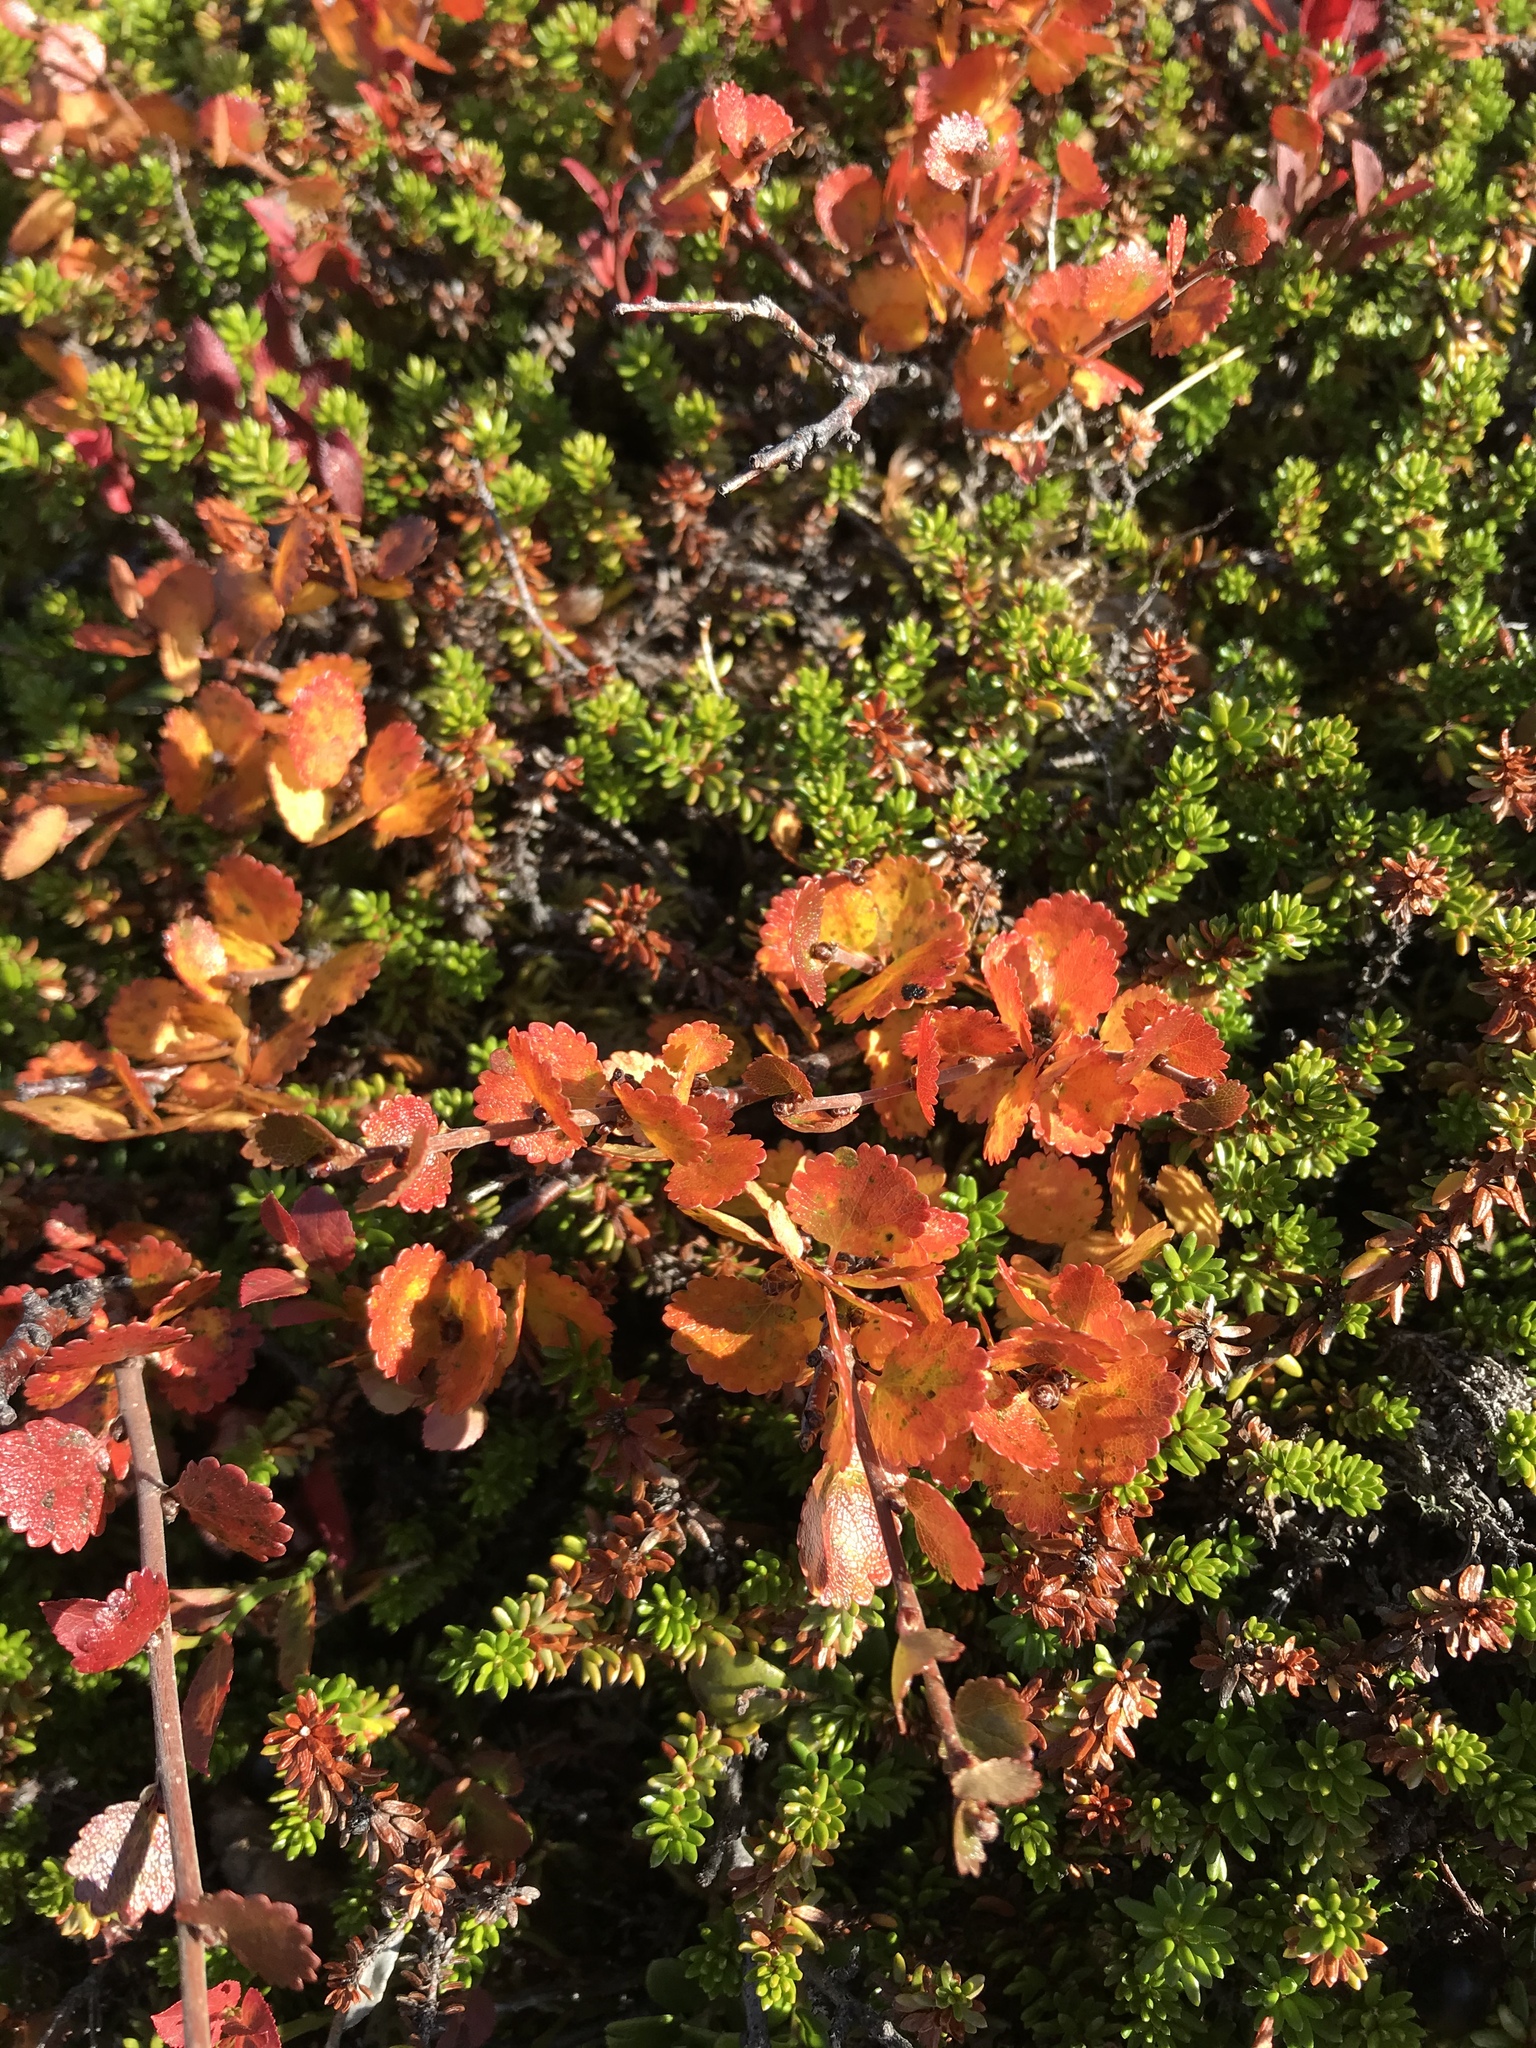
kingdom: Plantae
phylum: Tracheophyta
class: Magnoliopsida
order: Fagales
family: Betulaceae
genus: Betula
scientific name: Betula nana
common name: Arctic dwarf birch
